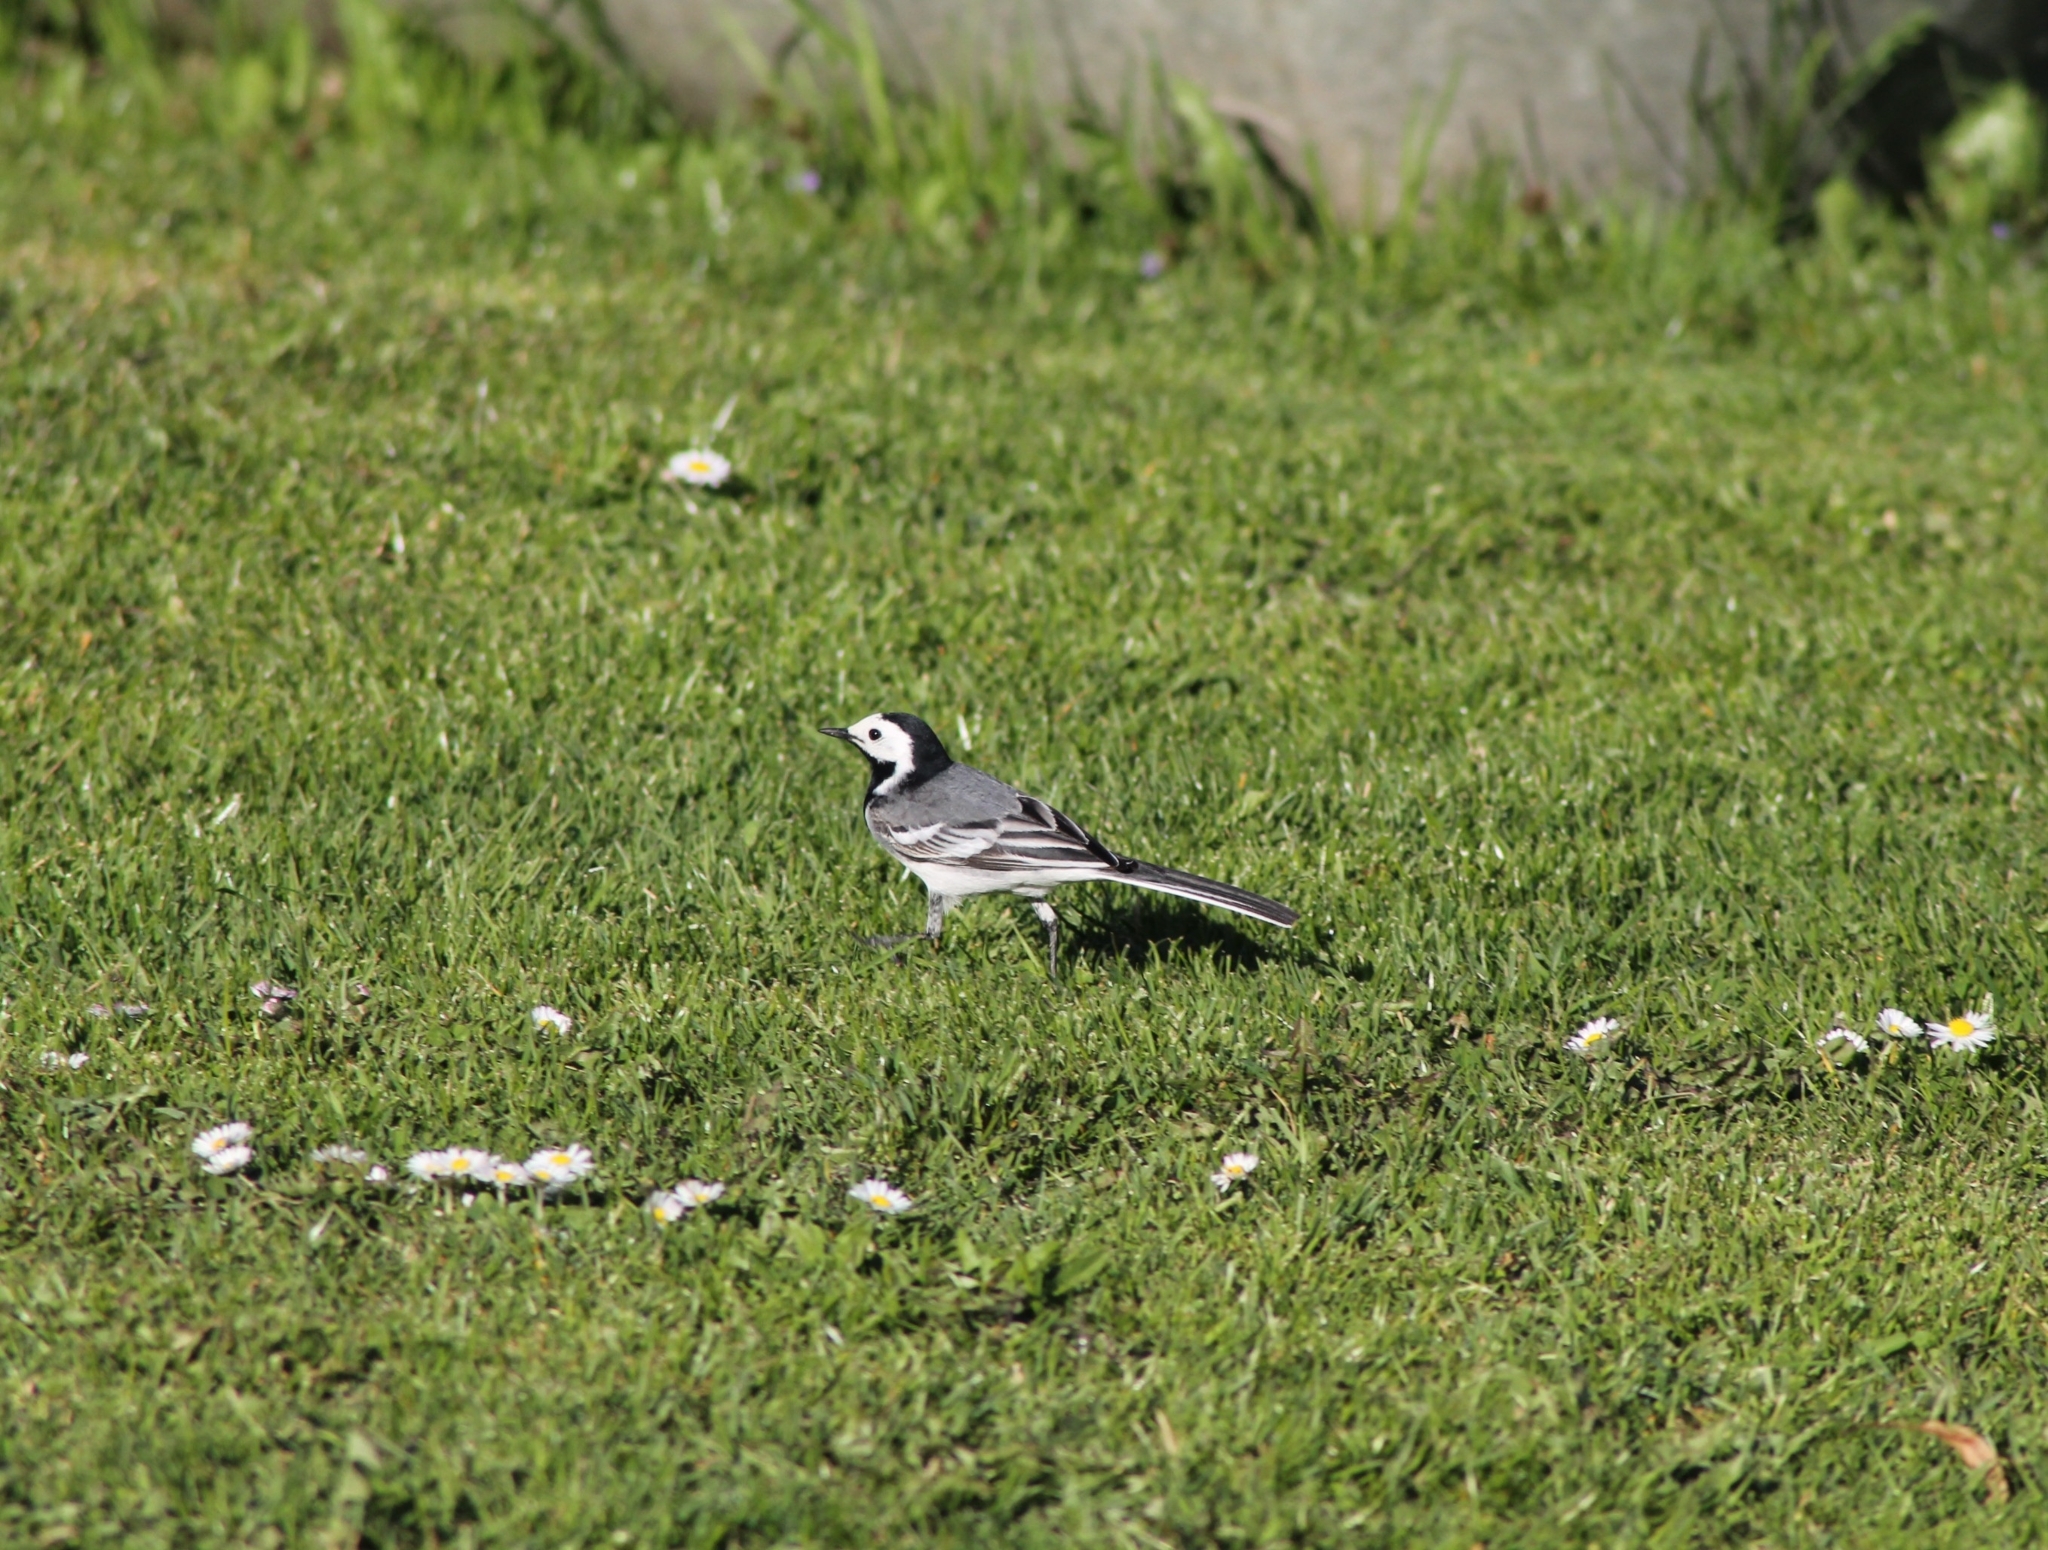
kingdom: Animalia
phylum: Chordata
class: Aves
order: Passeriformes
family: Motacillidae
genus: Motacilla
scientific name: Motacilla alba
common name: White wagtail
